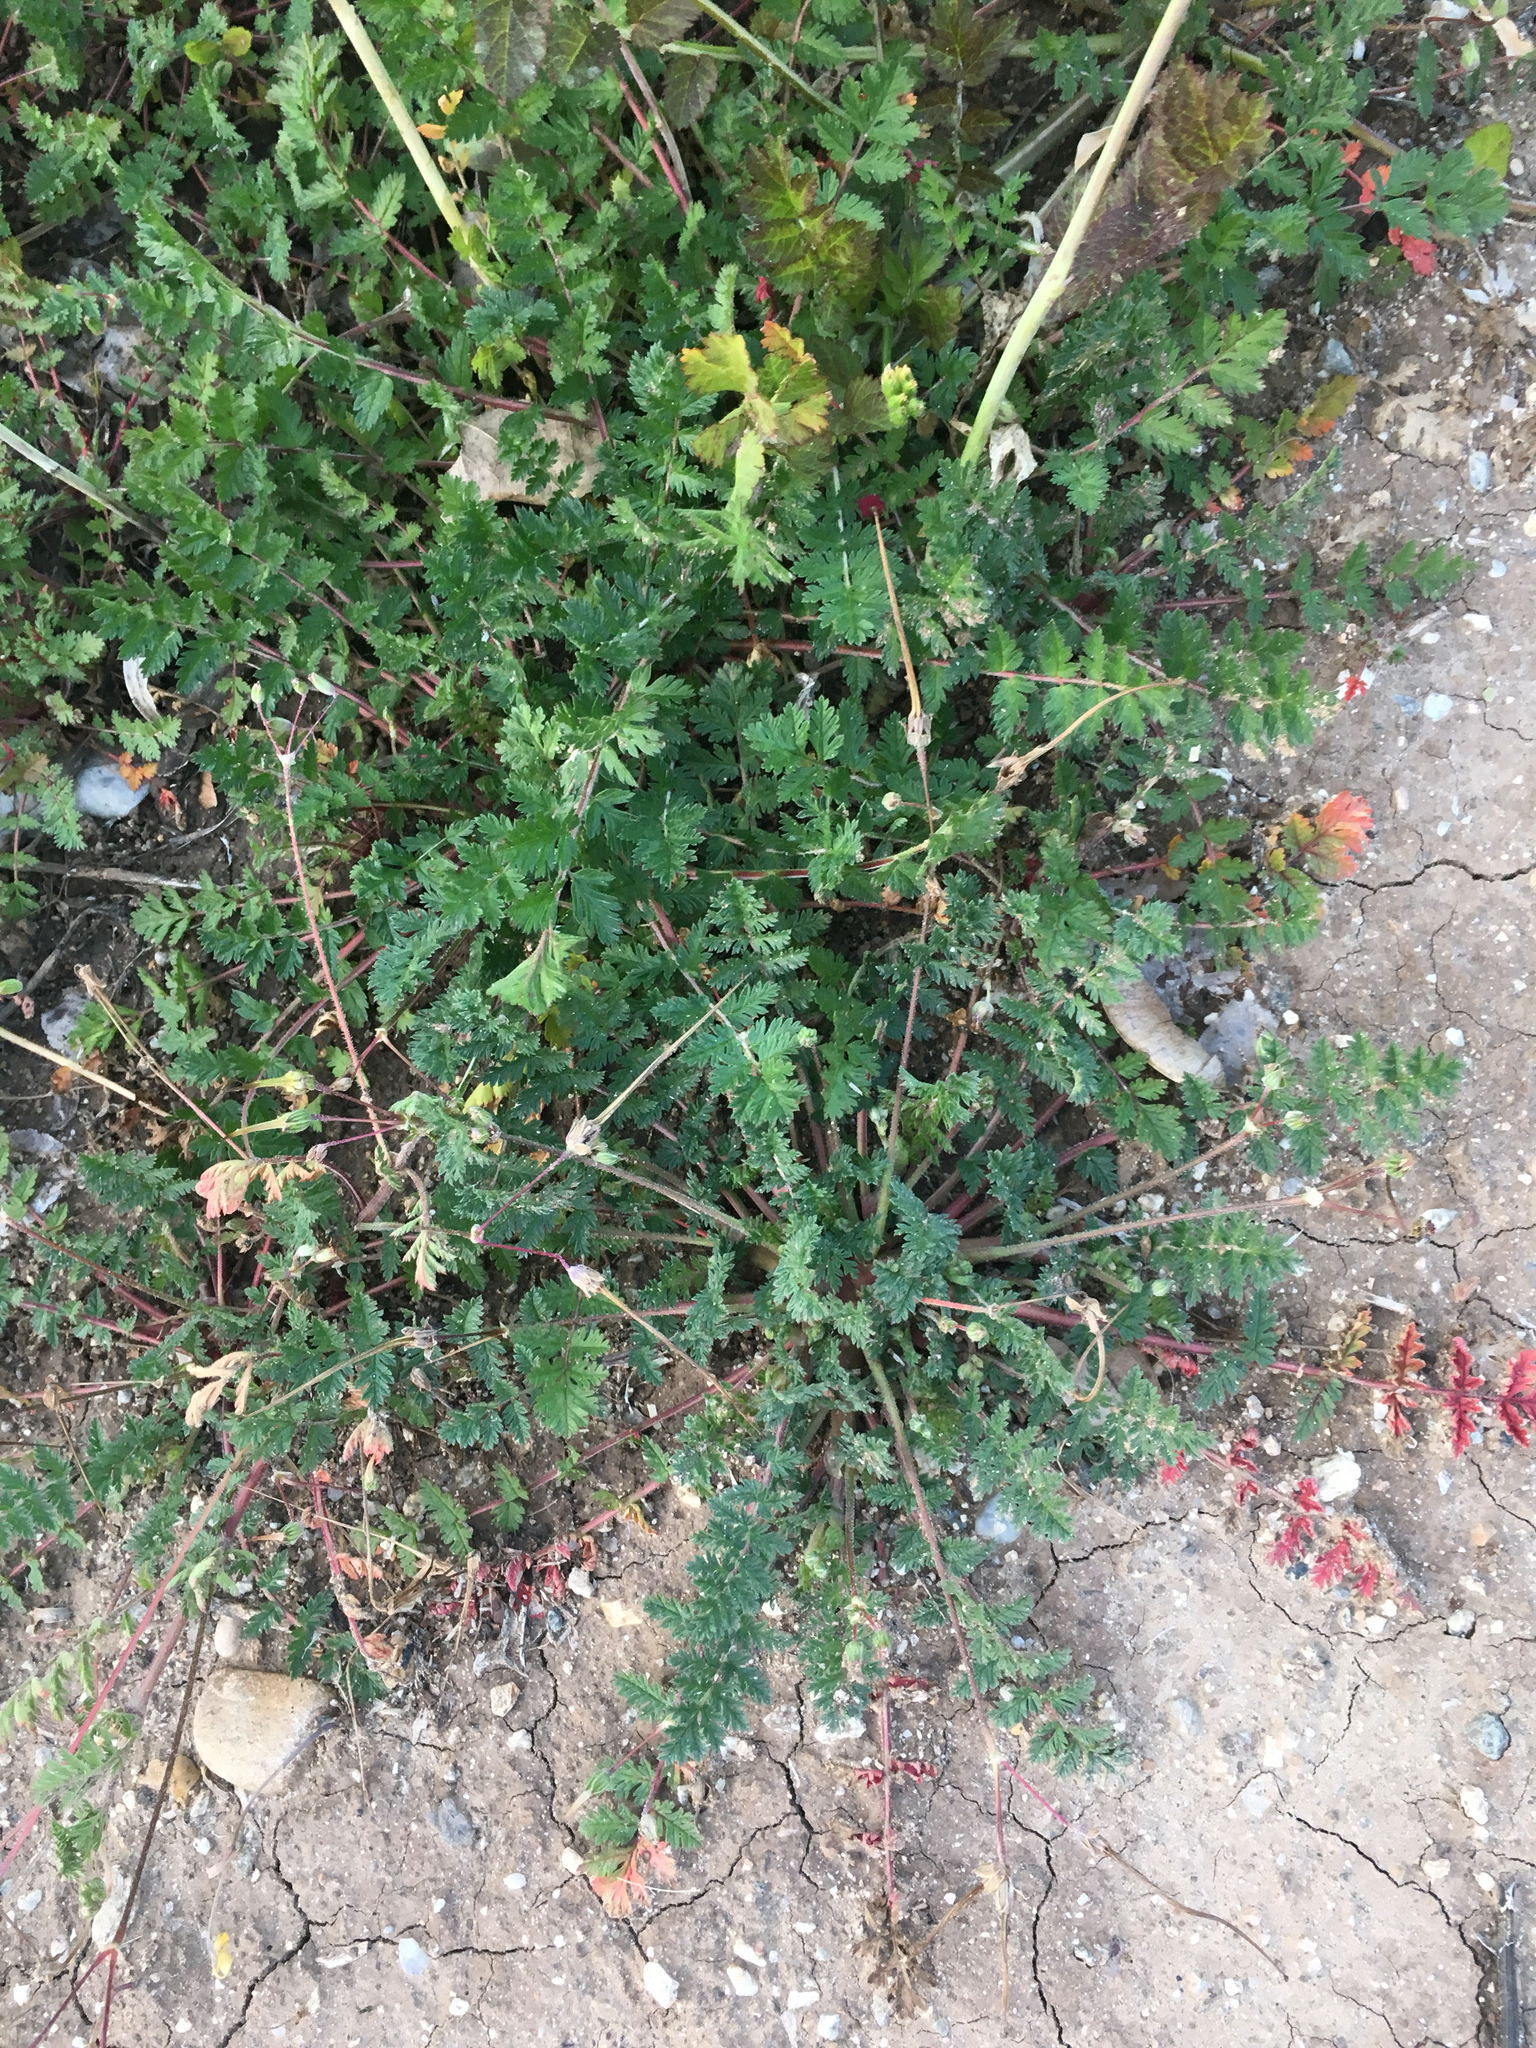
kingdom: Plantae
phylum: Tracheophyta
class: Magnoliopsida
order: Geraniales
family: Geraniaceae
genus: Erodium
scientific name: Erodium cicutarium
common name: Common stork's-bill
